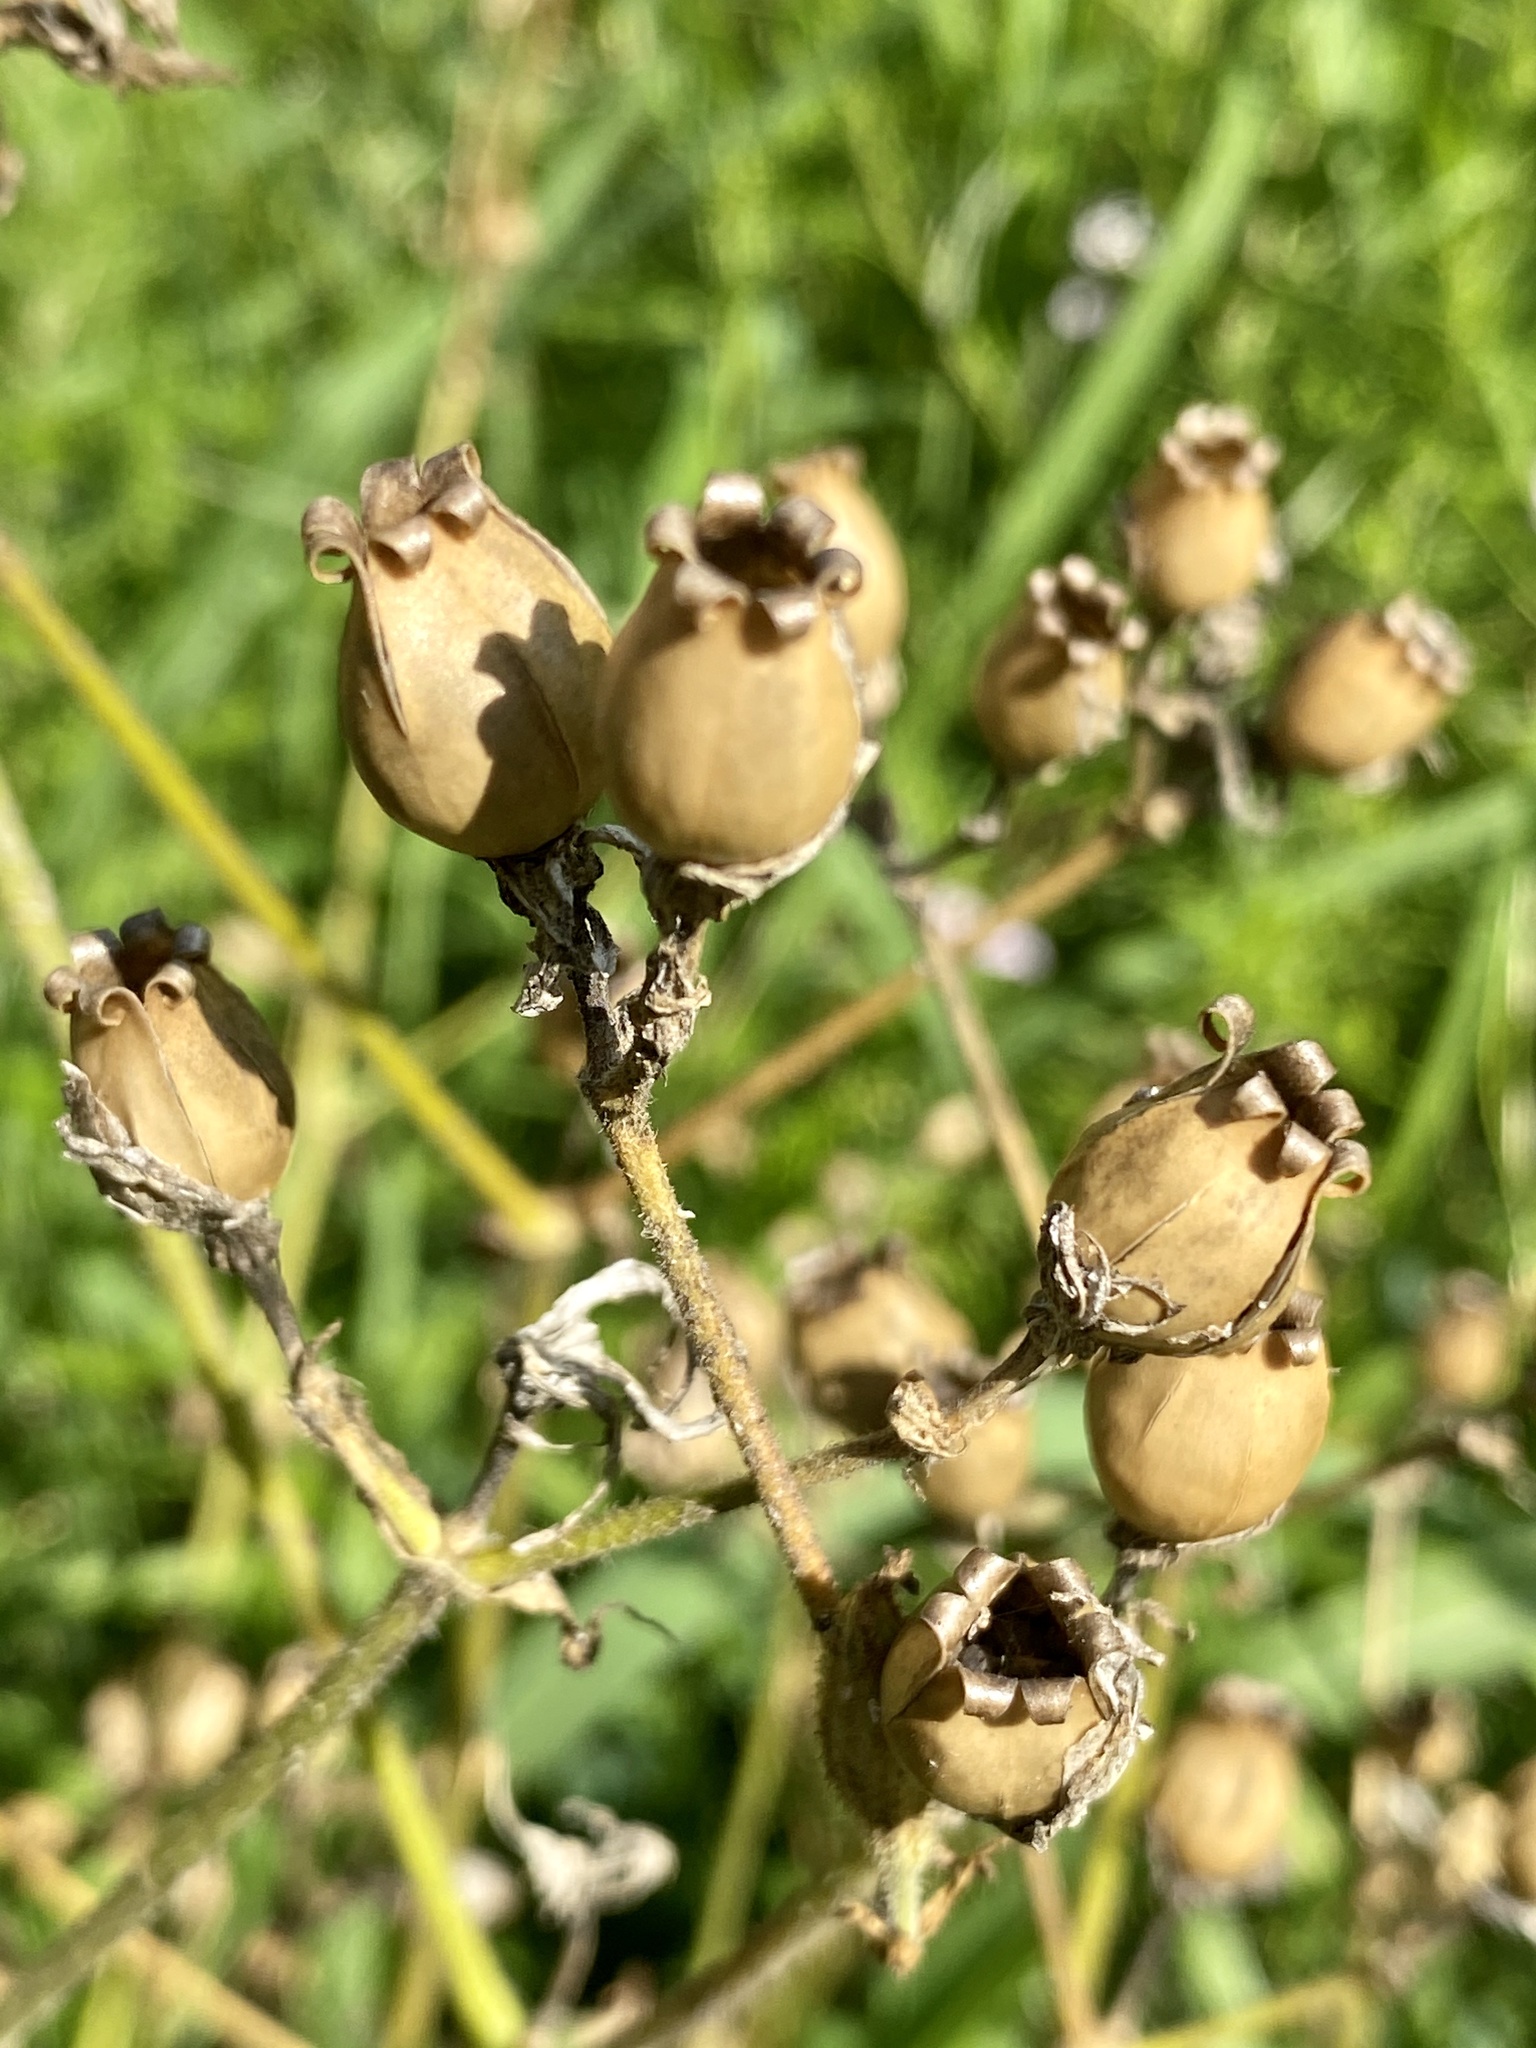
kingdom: Plantae
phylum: Tracheophyta
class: Magnoliopsida
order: Caryophyllales
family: Caryophyllaceae
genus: Silene
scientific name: Silene latifolia
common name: White campion
